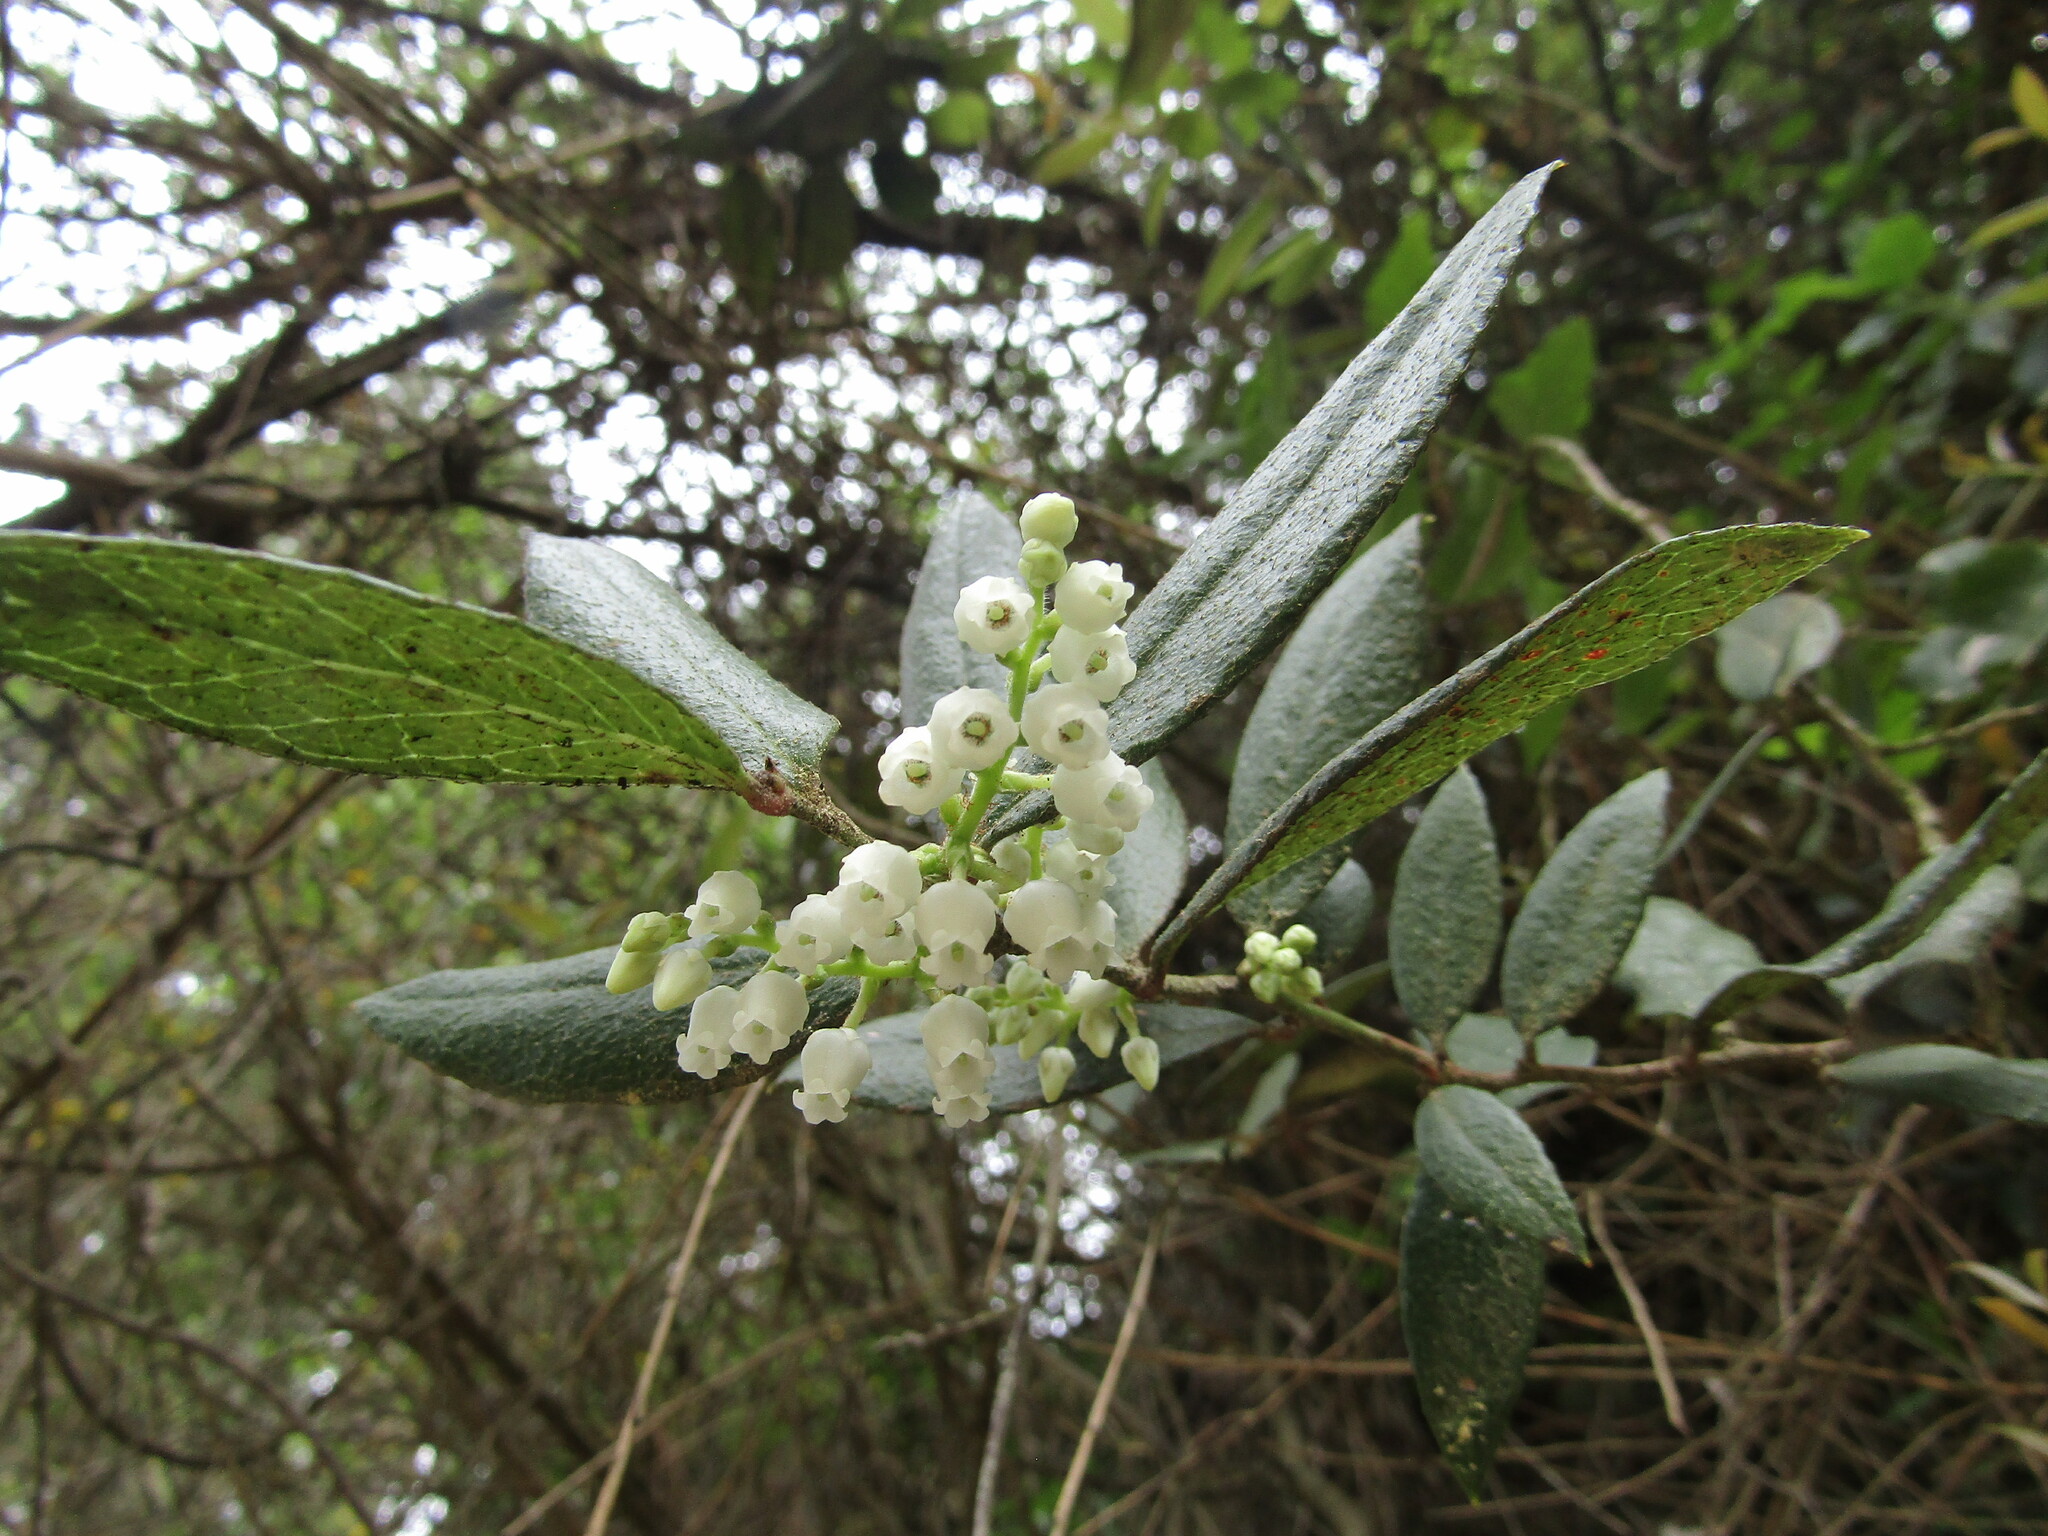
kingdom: Plantae
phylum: Tracheophyta
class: Magnoliopsida
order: Ericales
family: Ericaceae
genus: Gaultheria
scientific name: Gaultheria insana
